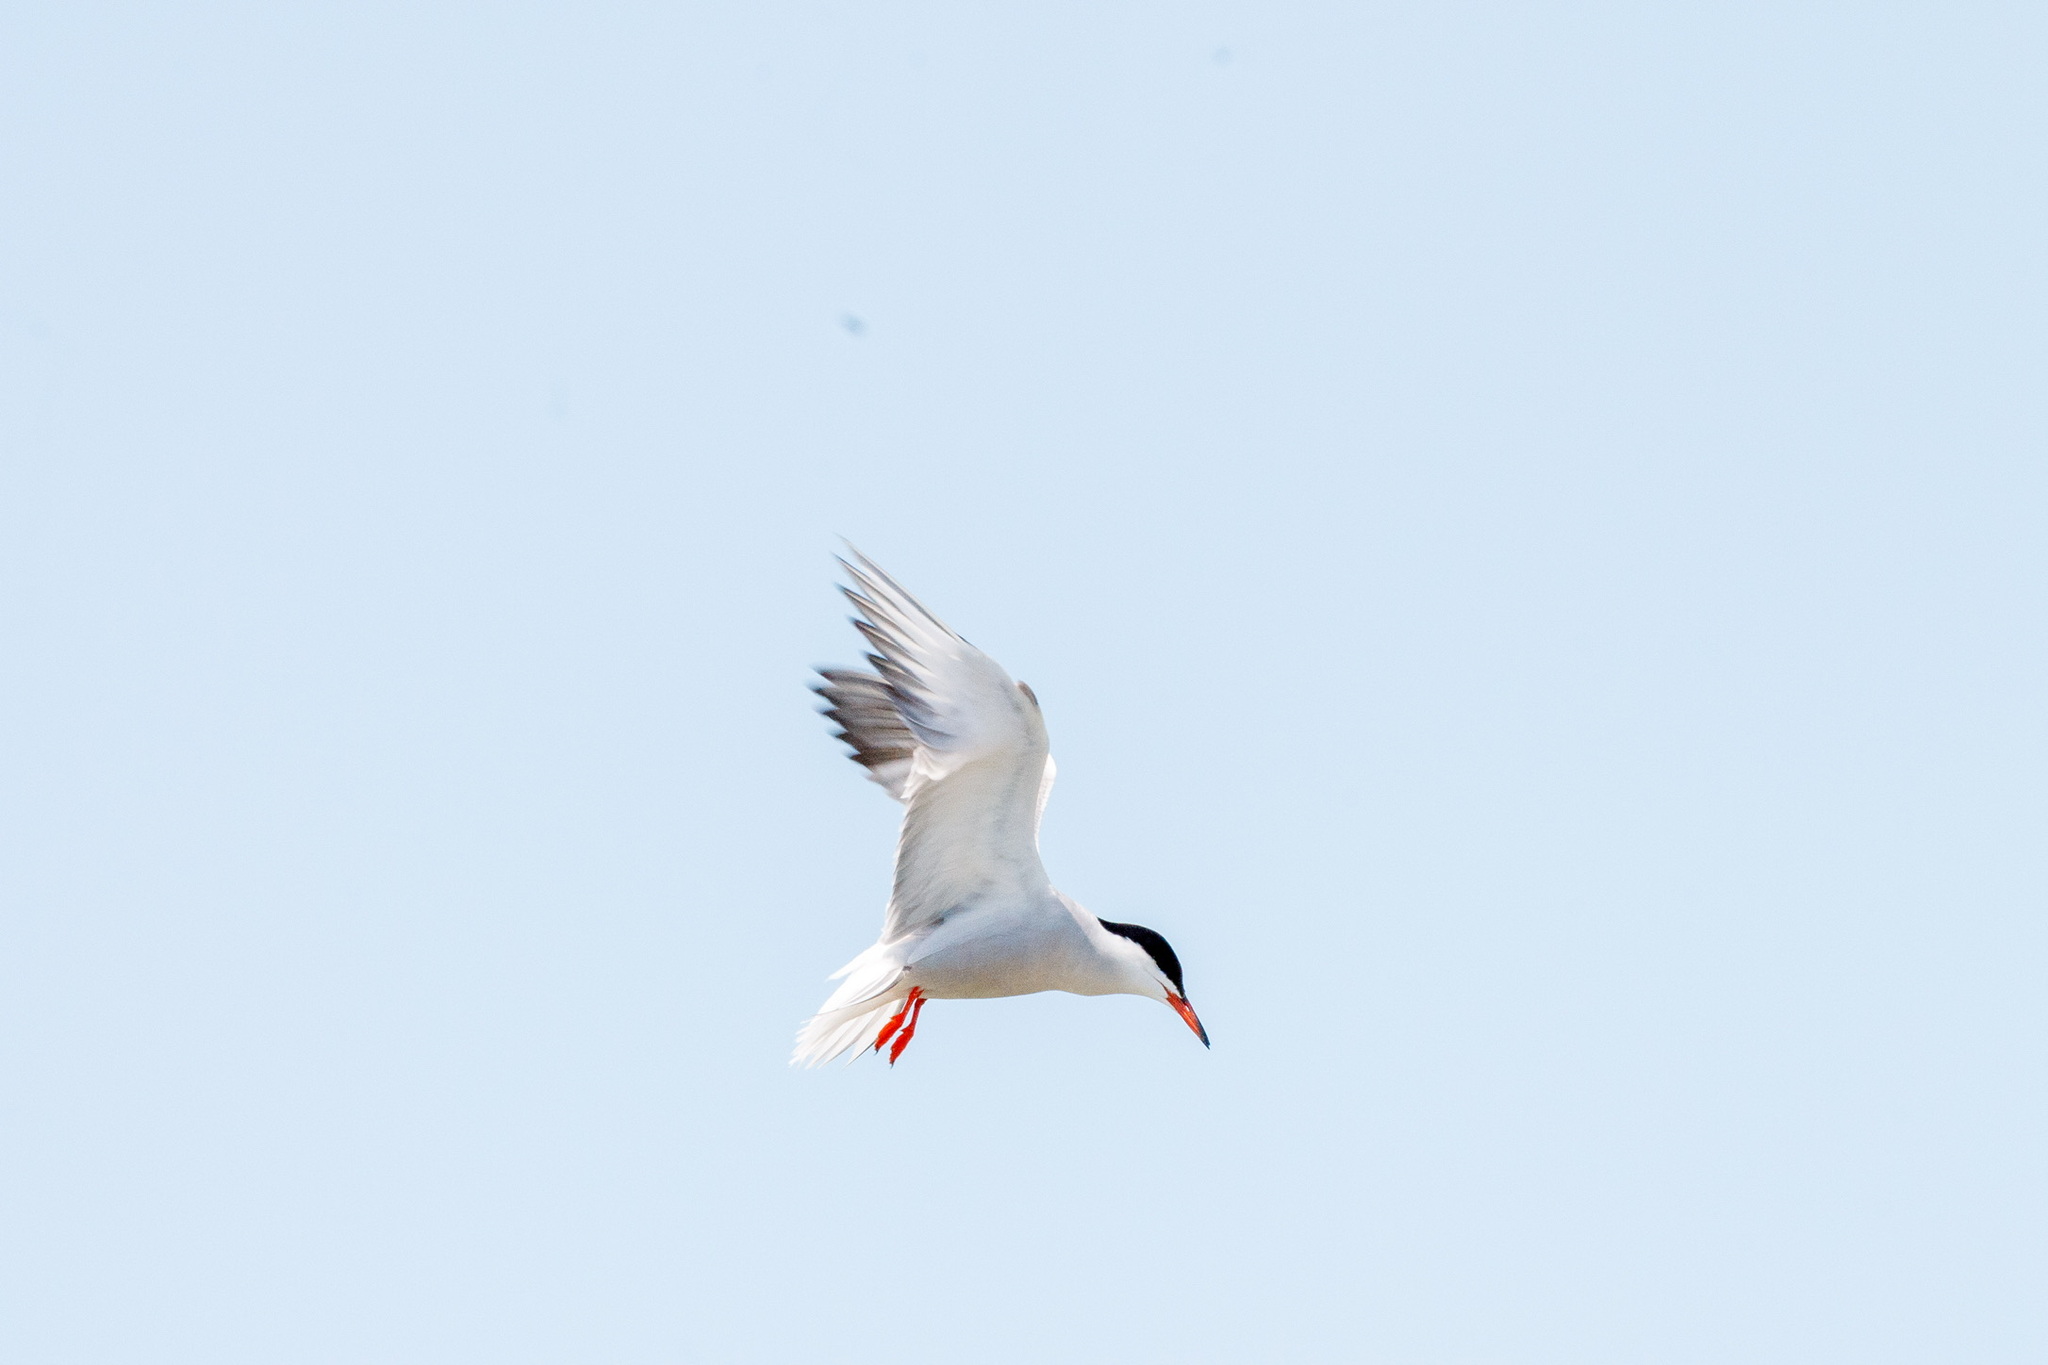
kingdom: Animalia
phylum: Chordata
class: Aves
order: Charadriiformes
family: Laridae
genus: Sterna
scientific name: Sterna hirundo
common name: Common tern
